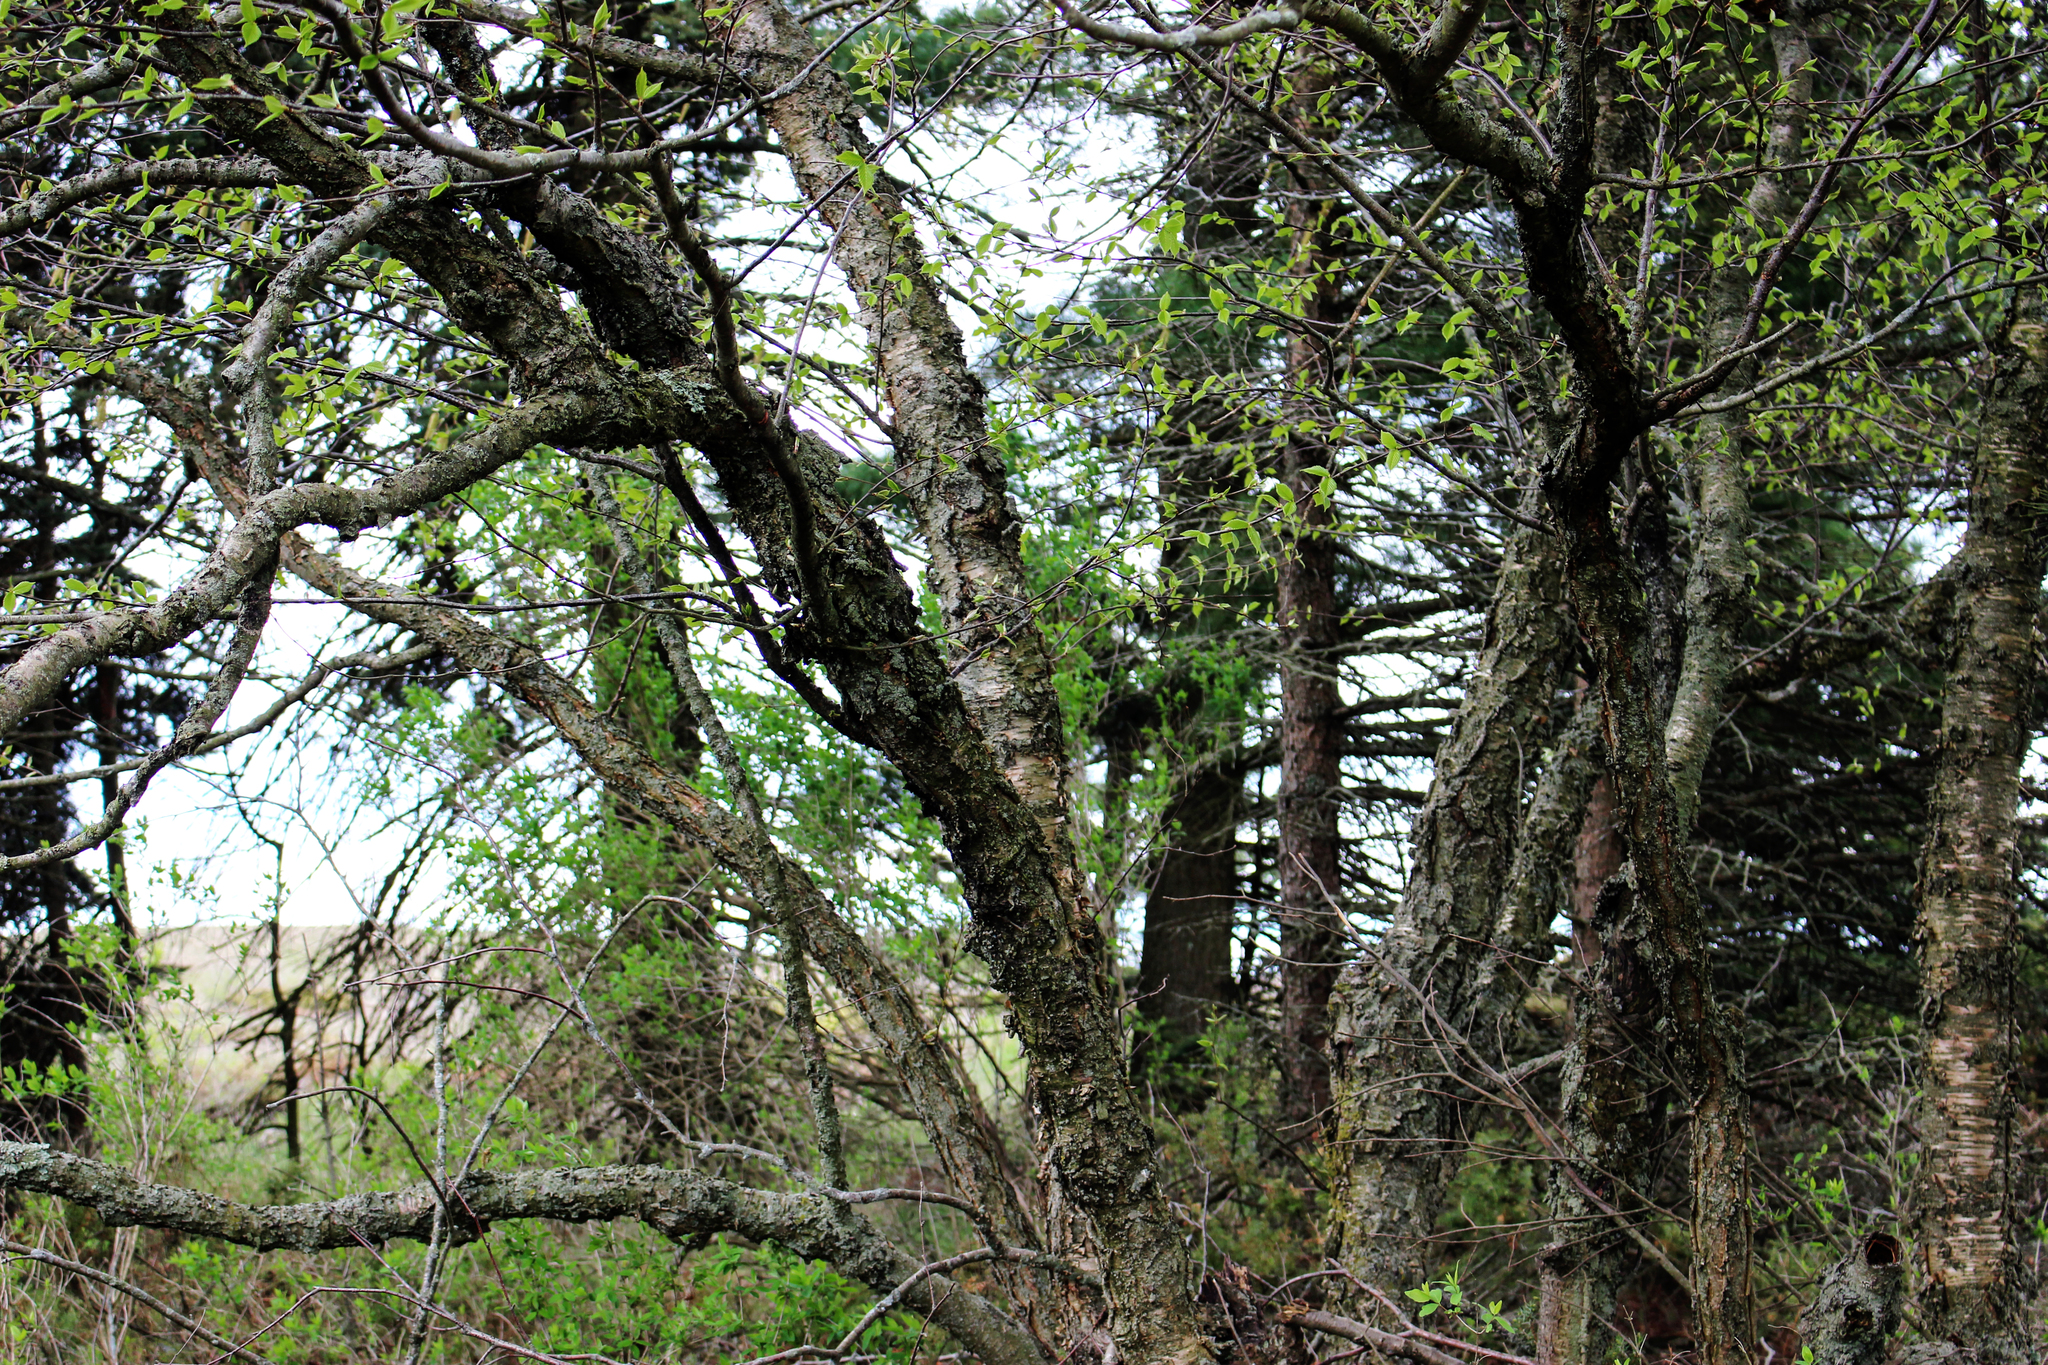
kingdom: Plantae
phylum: Tracheophyta
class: Magnoliopsida
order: Fagales
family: Betulaceae
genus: Betula
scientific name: Betula alleghaniensis
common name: Yellow birch
